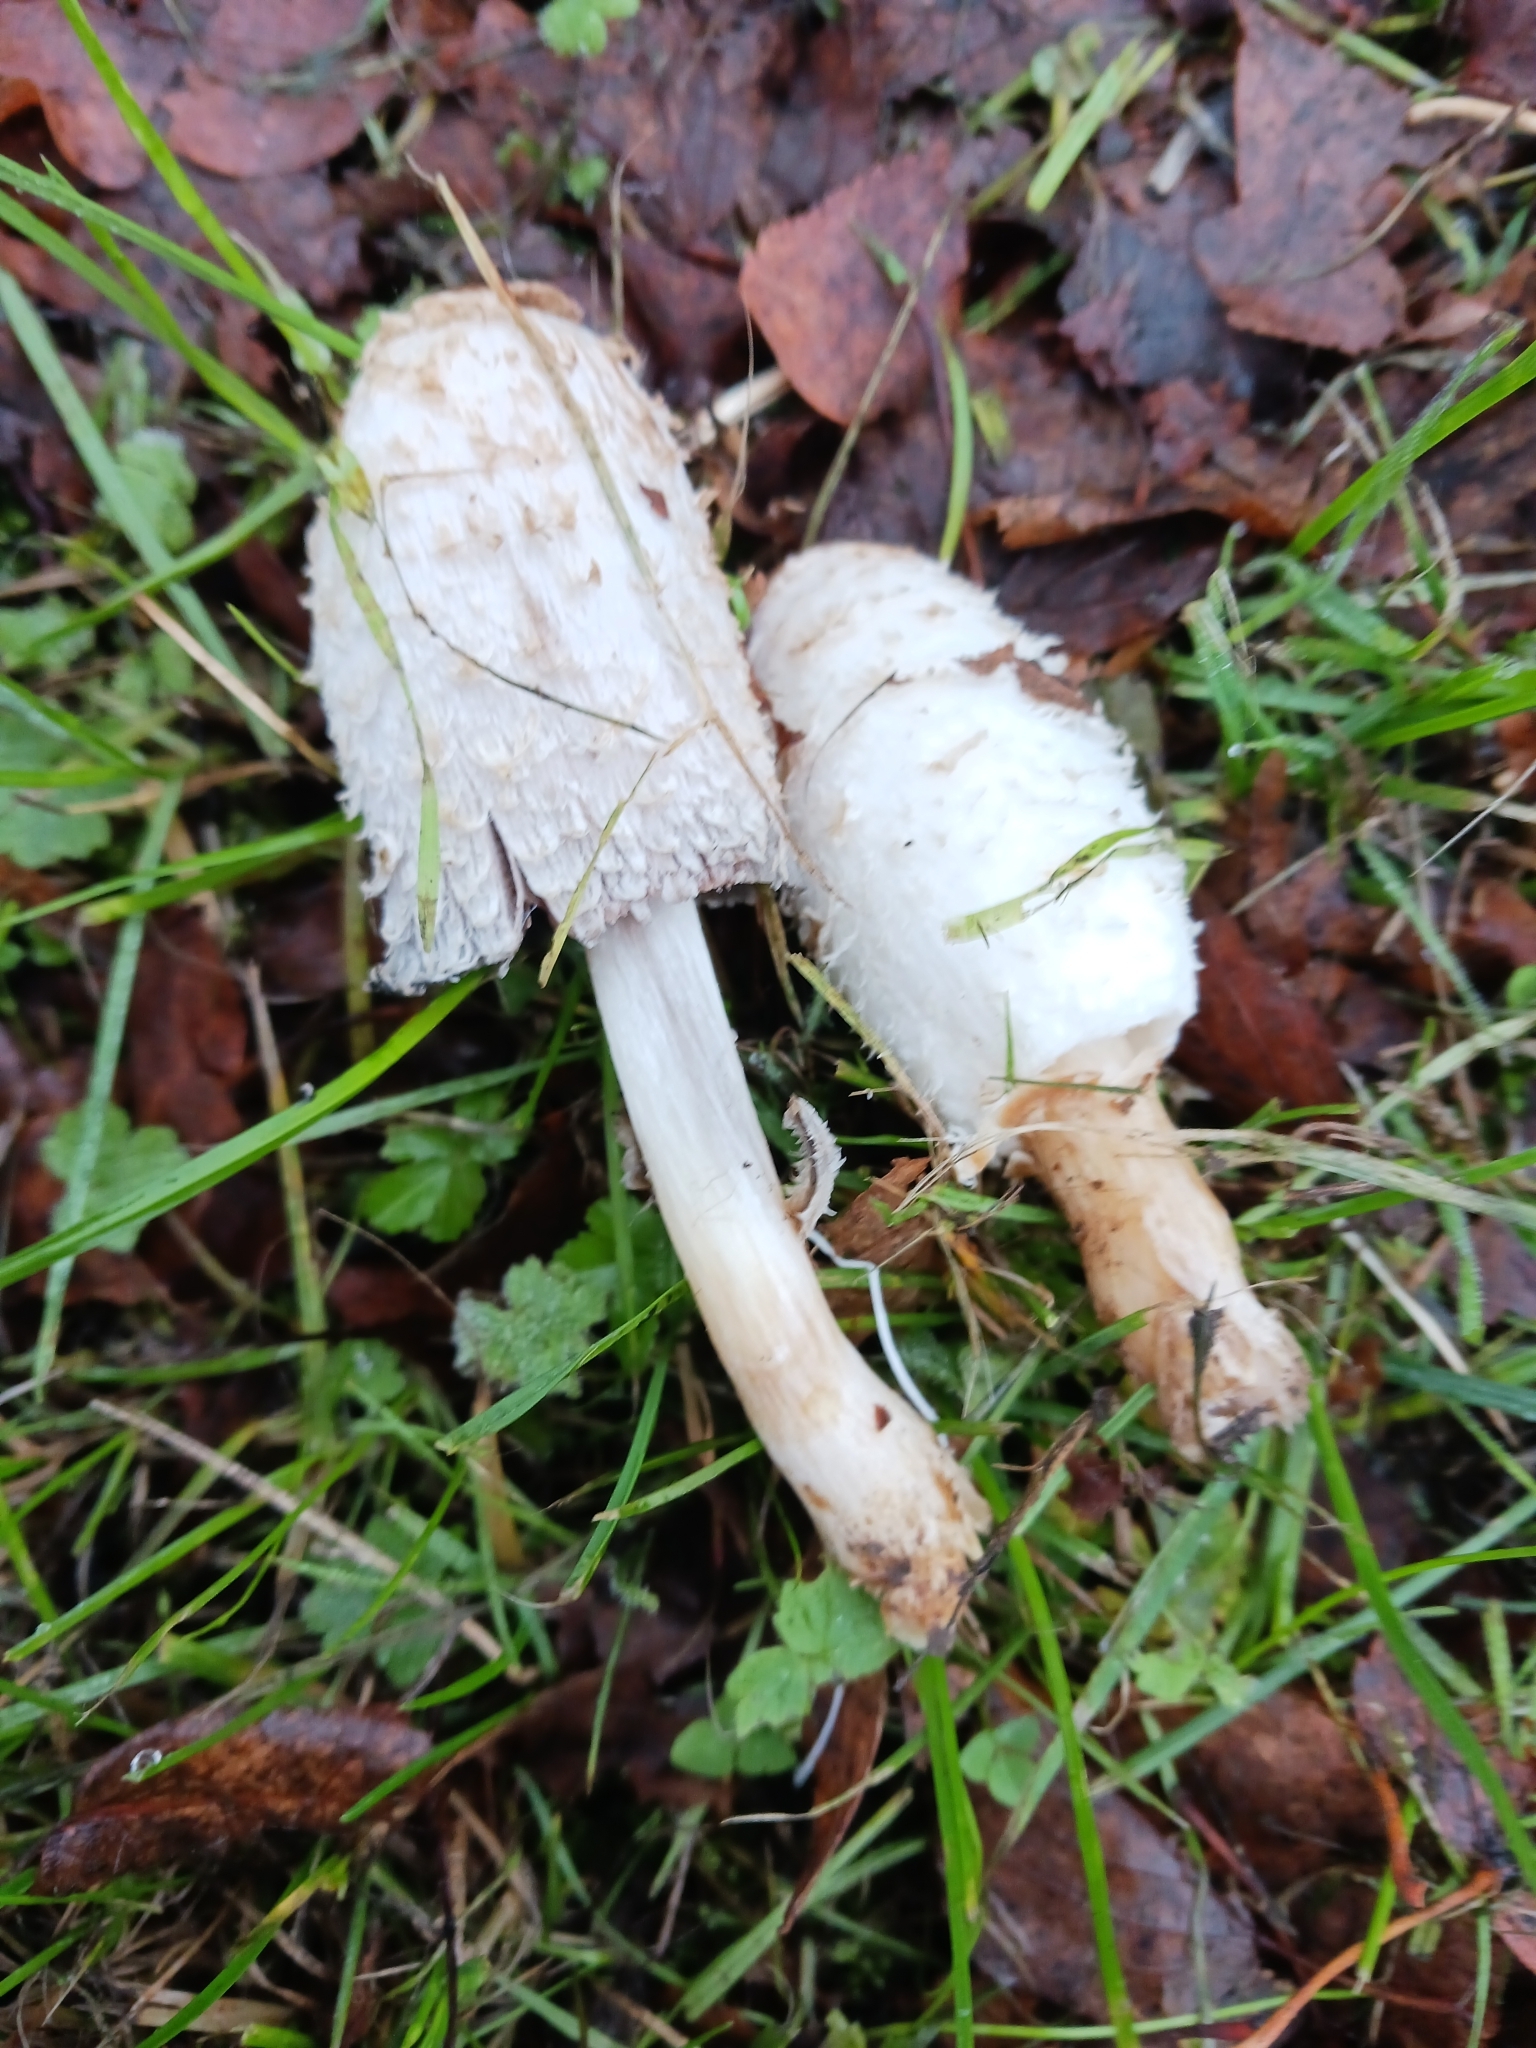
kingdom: Fungi
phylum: Basidiomycota
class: Agaricomycetes
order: Agaricales
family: Agaricaceae
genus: Coprinus
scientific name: Coprinus comatus
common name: Lawyer's wig
